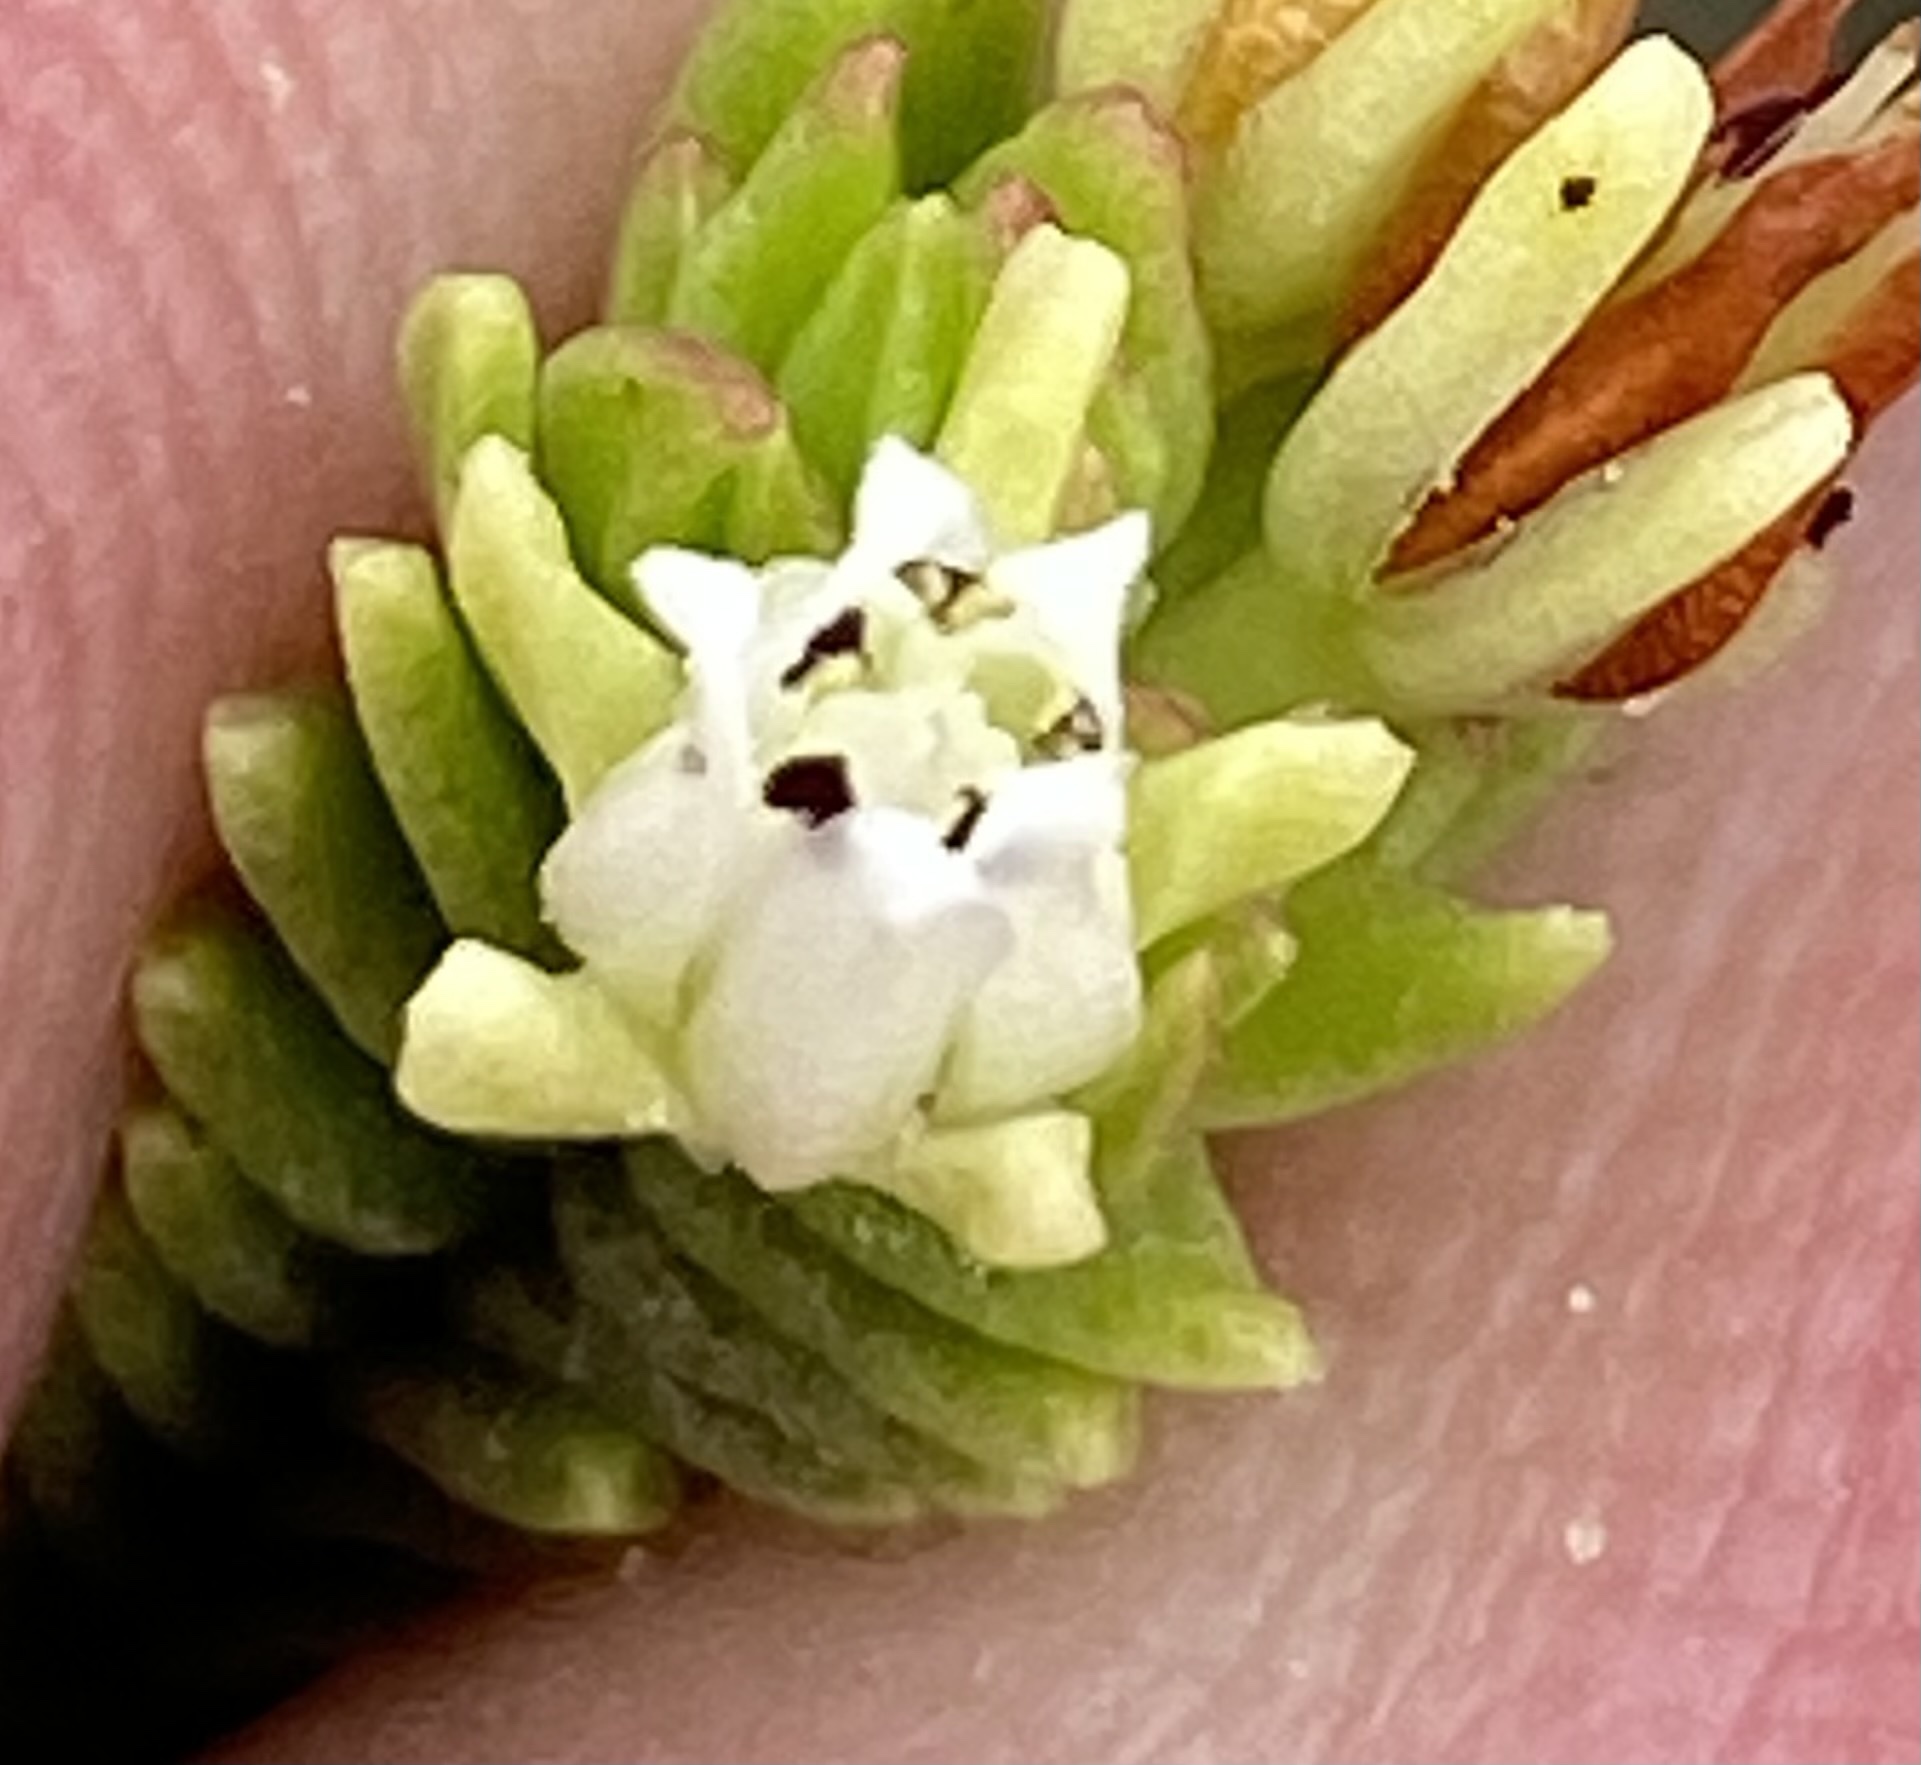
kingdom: Plantae
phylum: Tracheophyta
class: Magnoliopsida
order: Saxifragales
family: Crassulaceae
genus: Crassula
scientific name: Crassula ericoides
